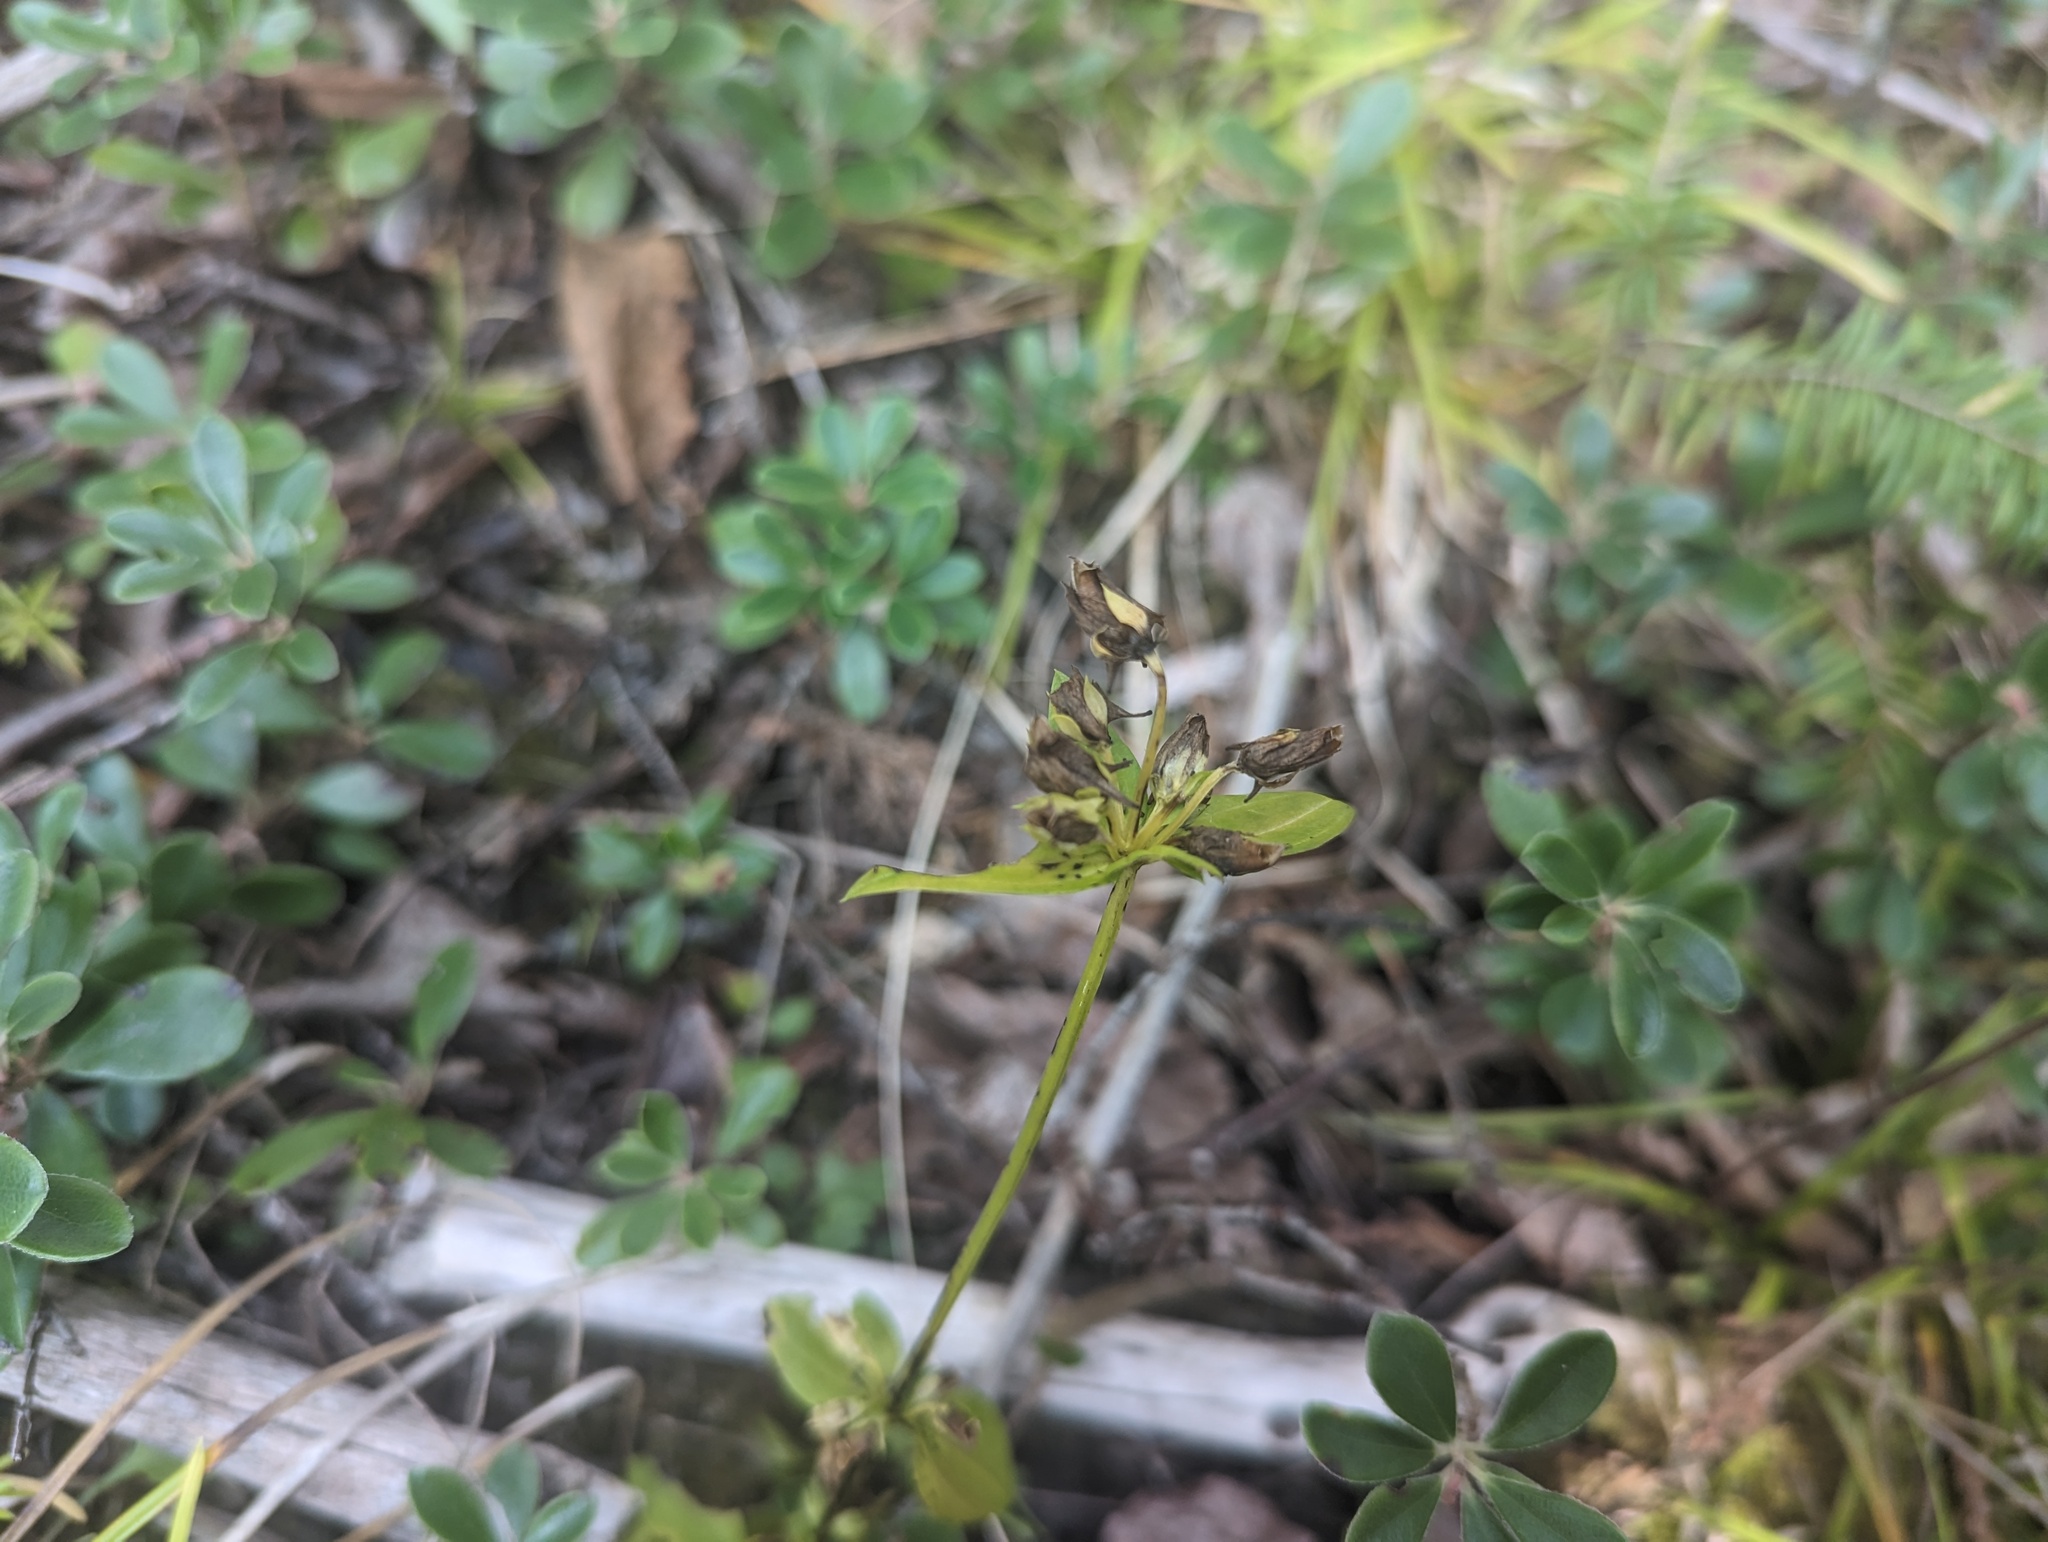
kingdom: Plantae
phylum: Tracheophyta
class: Magnoliopsida
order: Gentianales
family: Gentianaceae
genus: Halenia
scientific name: Halenia deflexa
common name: American spurred gentian
